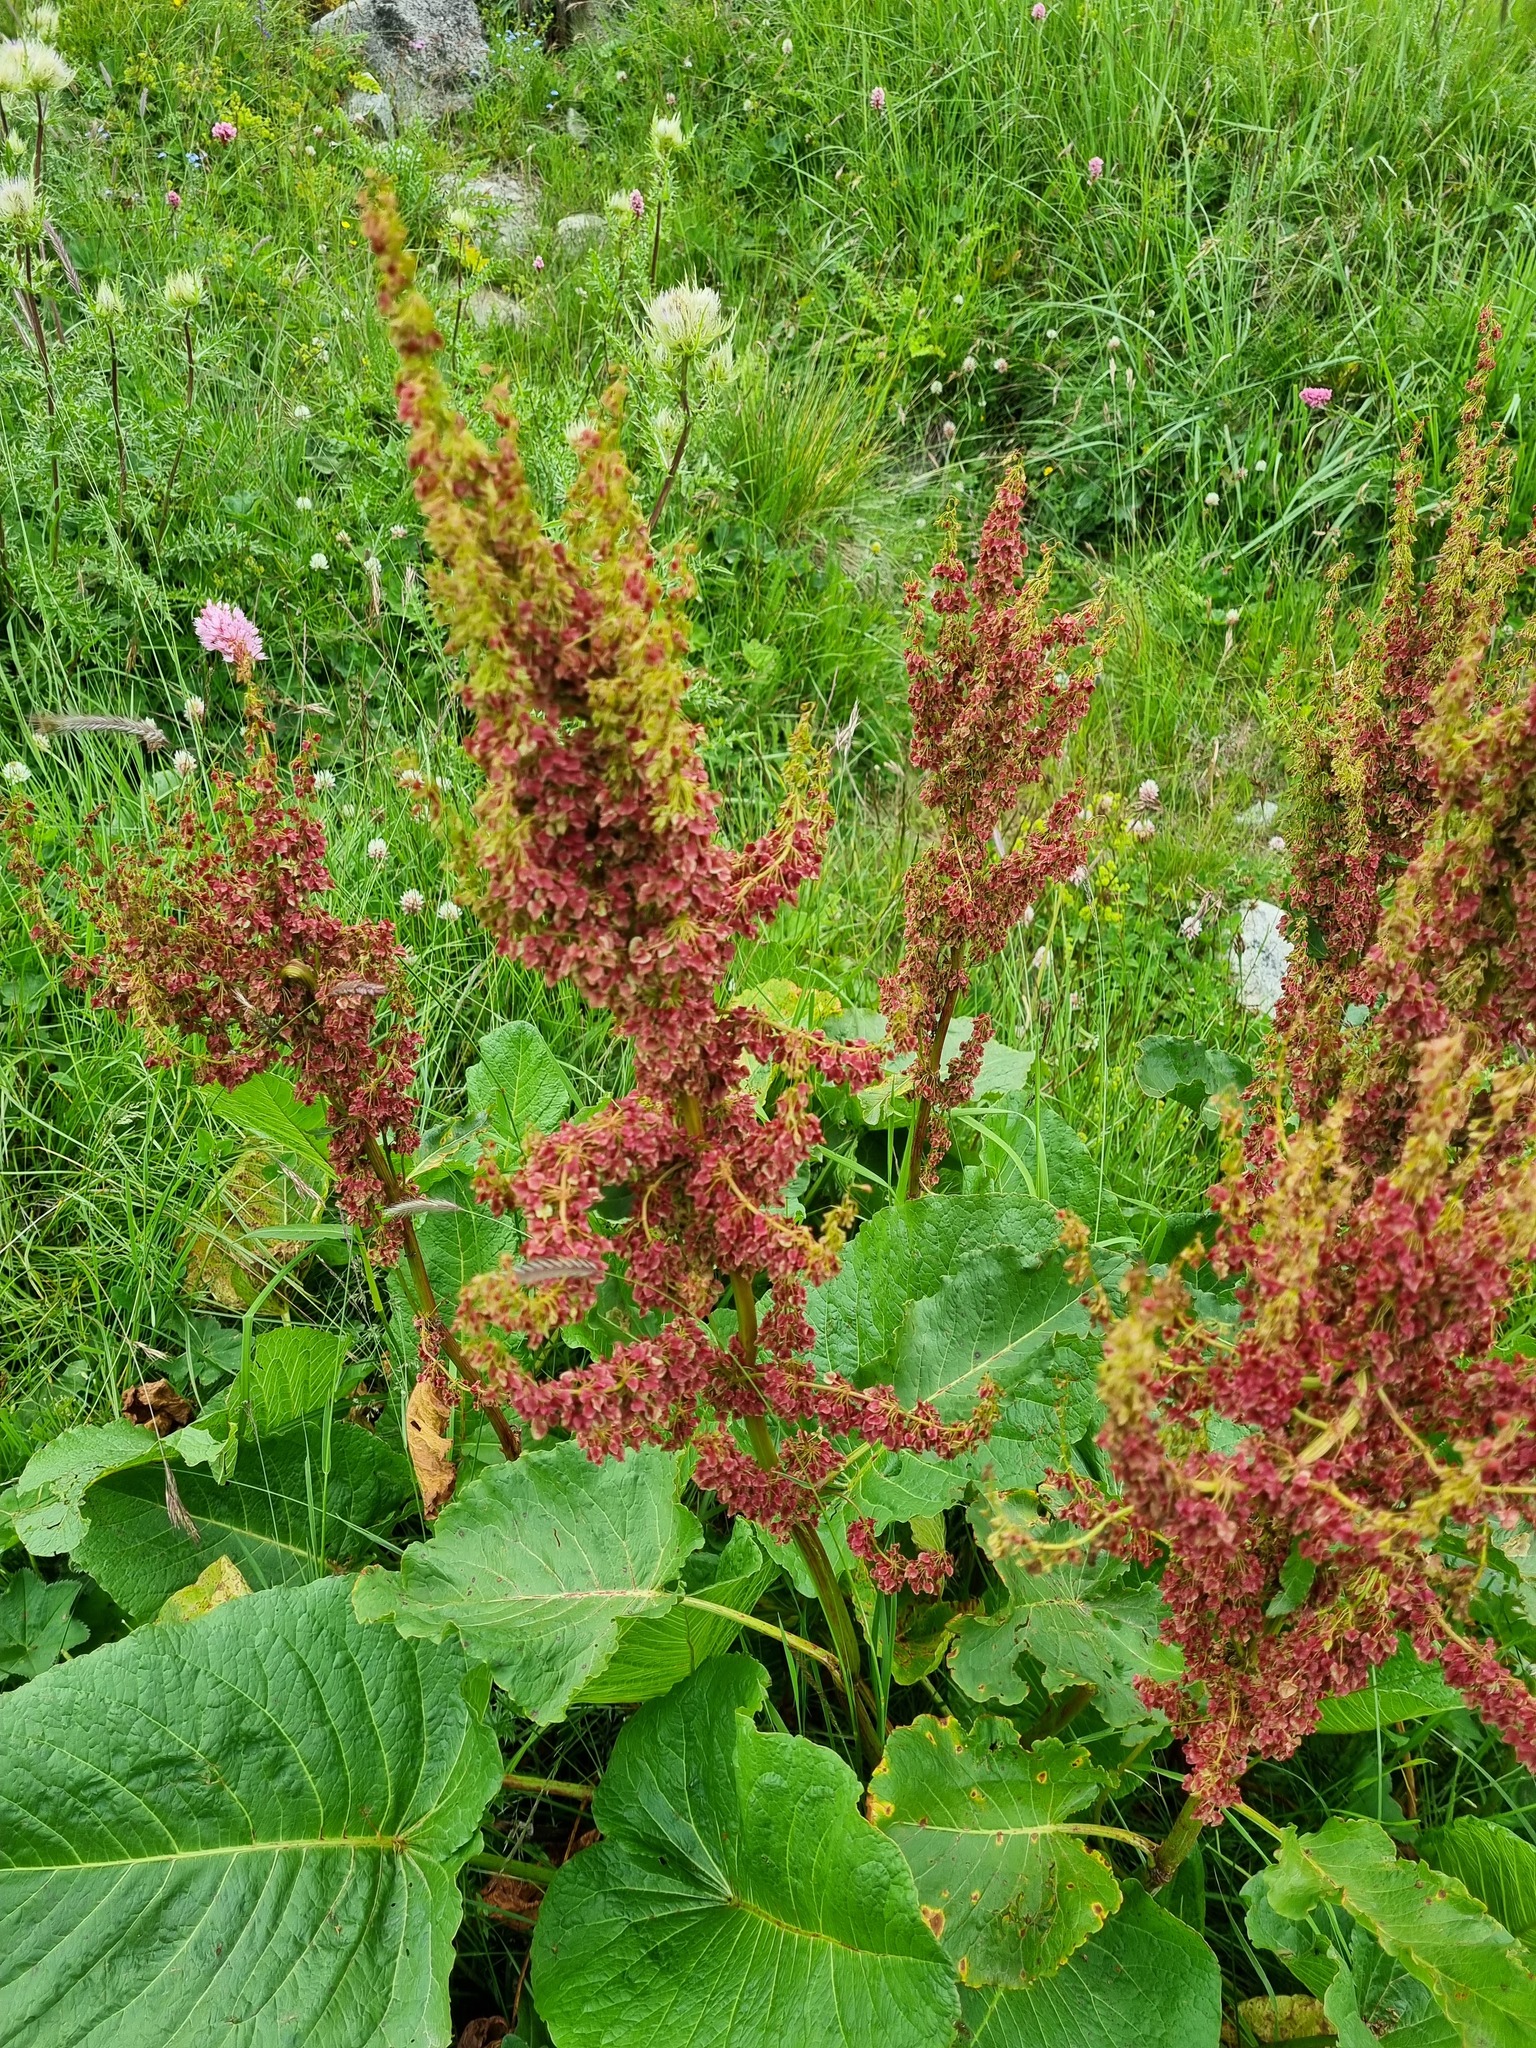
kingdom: Plantae
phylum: Tracheophyta
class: Magnoliopsida
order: Caryophyllales
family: Polygonaceae
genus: Rumex
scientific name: Rumex alpinus
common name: Alpine dock
